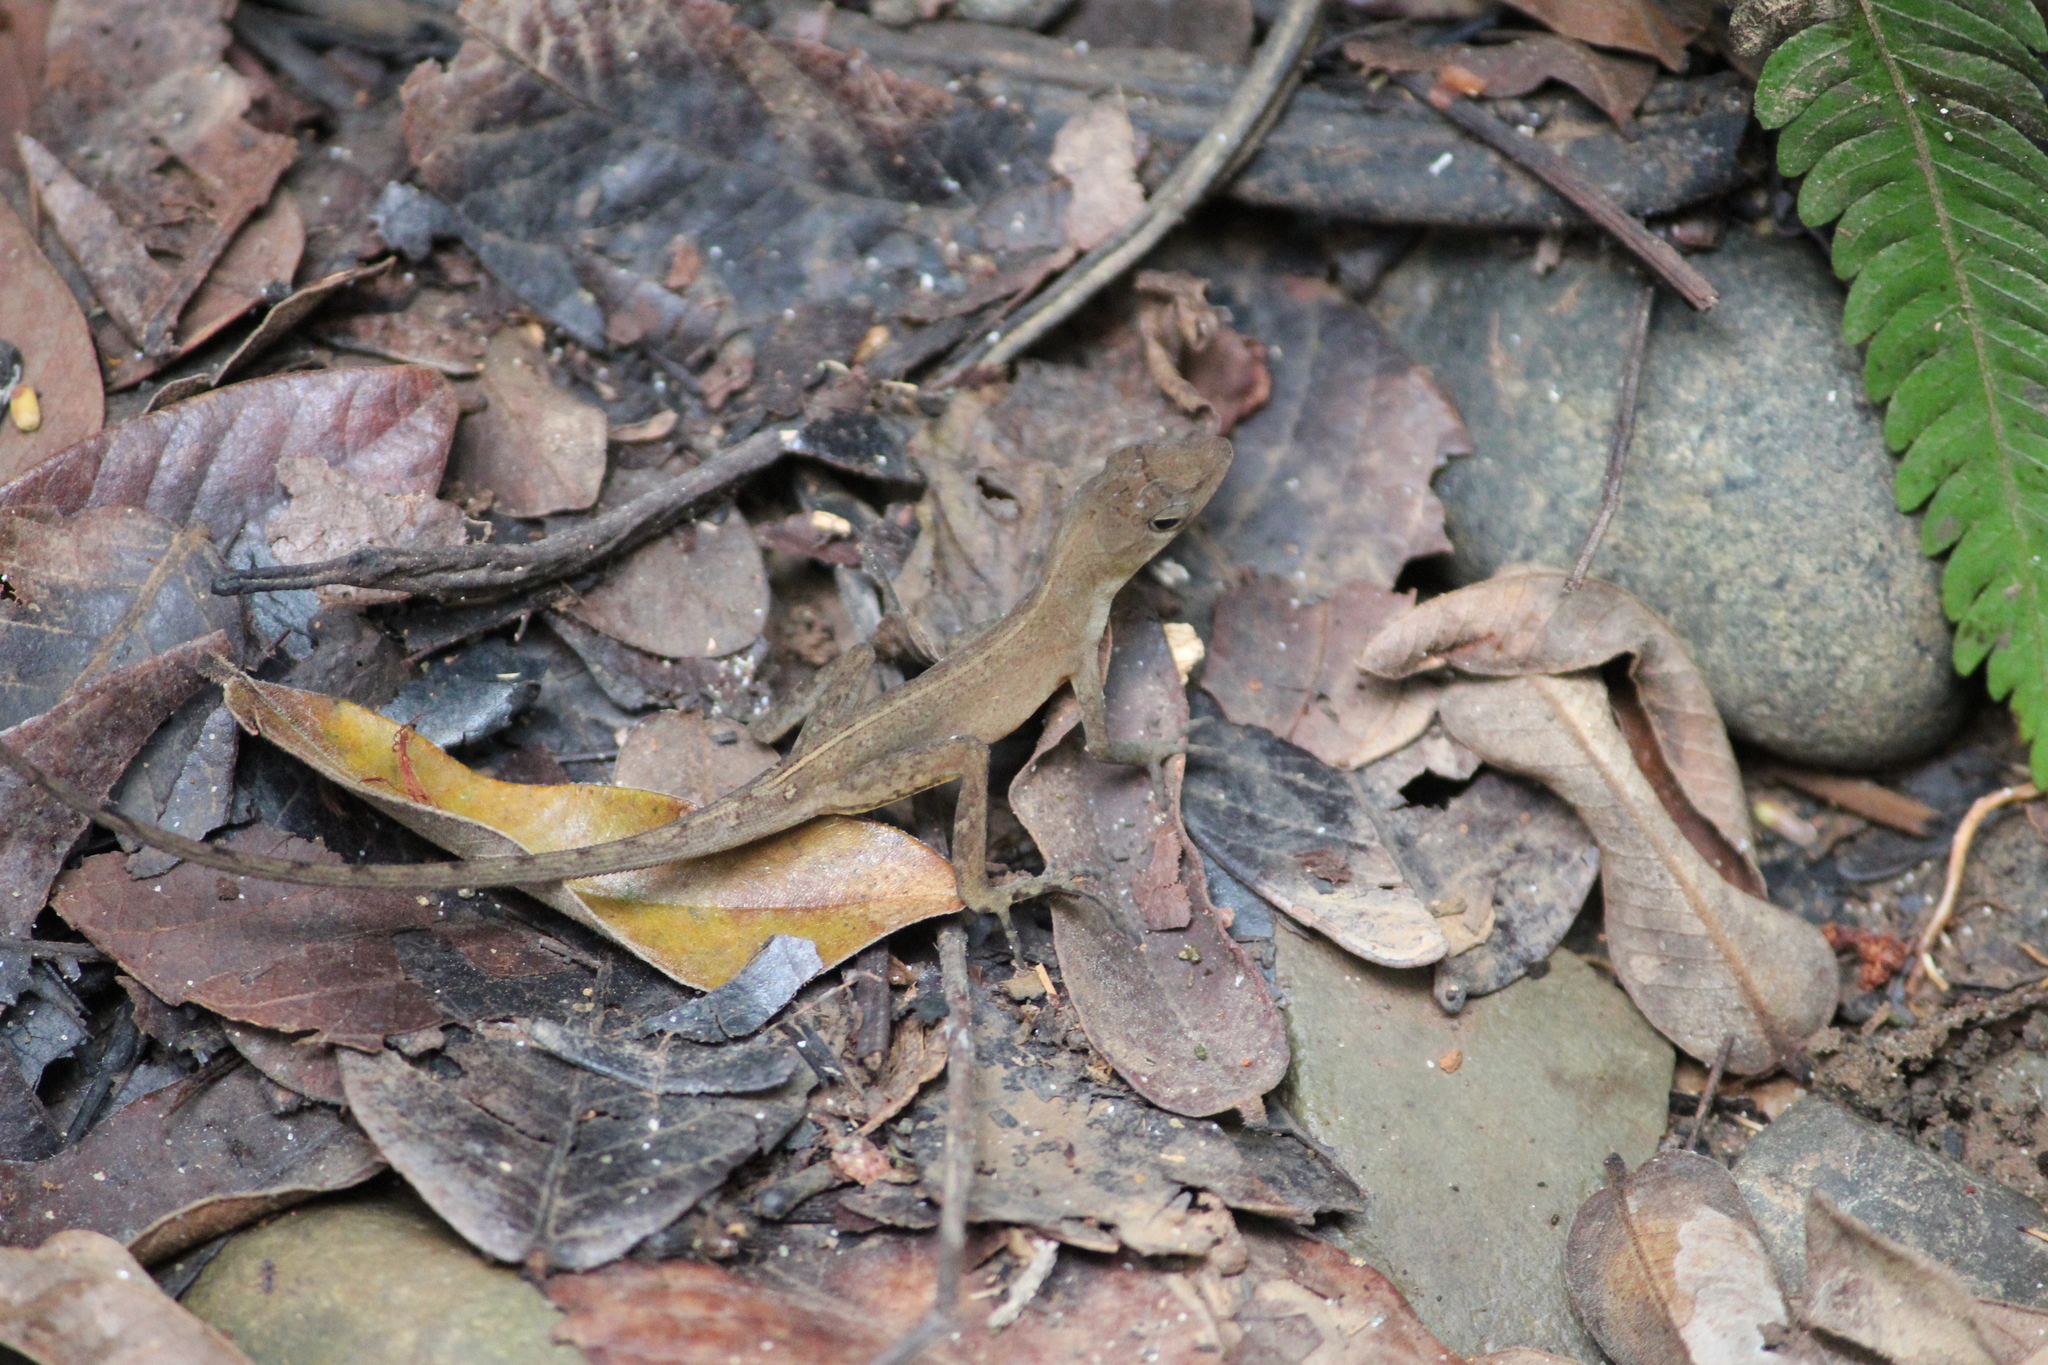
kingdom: Animalia
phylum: Chordata
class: Squamata
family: Dactyloidae
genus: Anolis
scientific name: Anolis cupreus
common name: Copper anole
